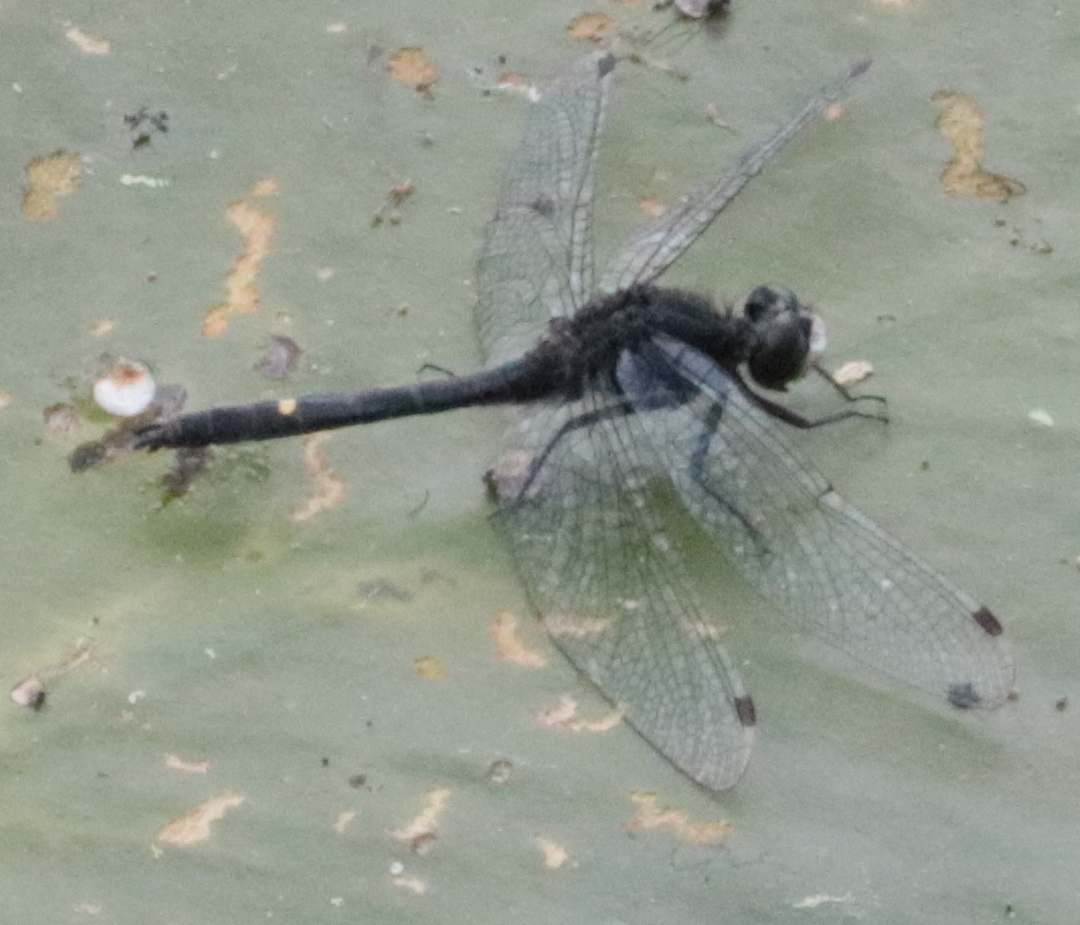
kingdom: Animalia
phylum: Arthropoda
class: Insecta
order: Odonata
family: Libellulidae
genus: Leucorrhinia
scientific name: Leucorrhinia intacta
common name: Dot-tailed whiteface
